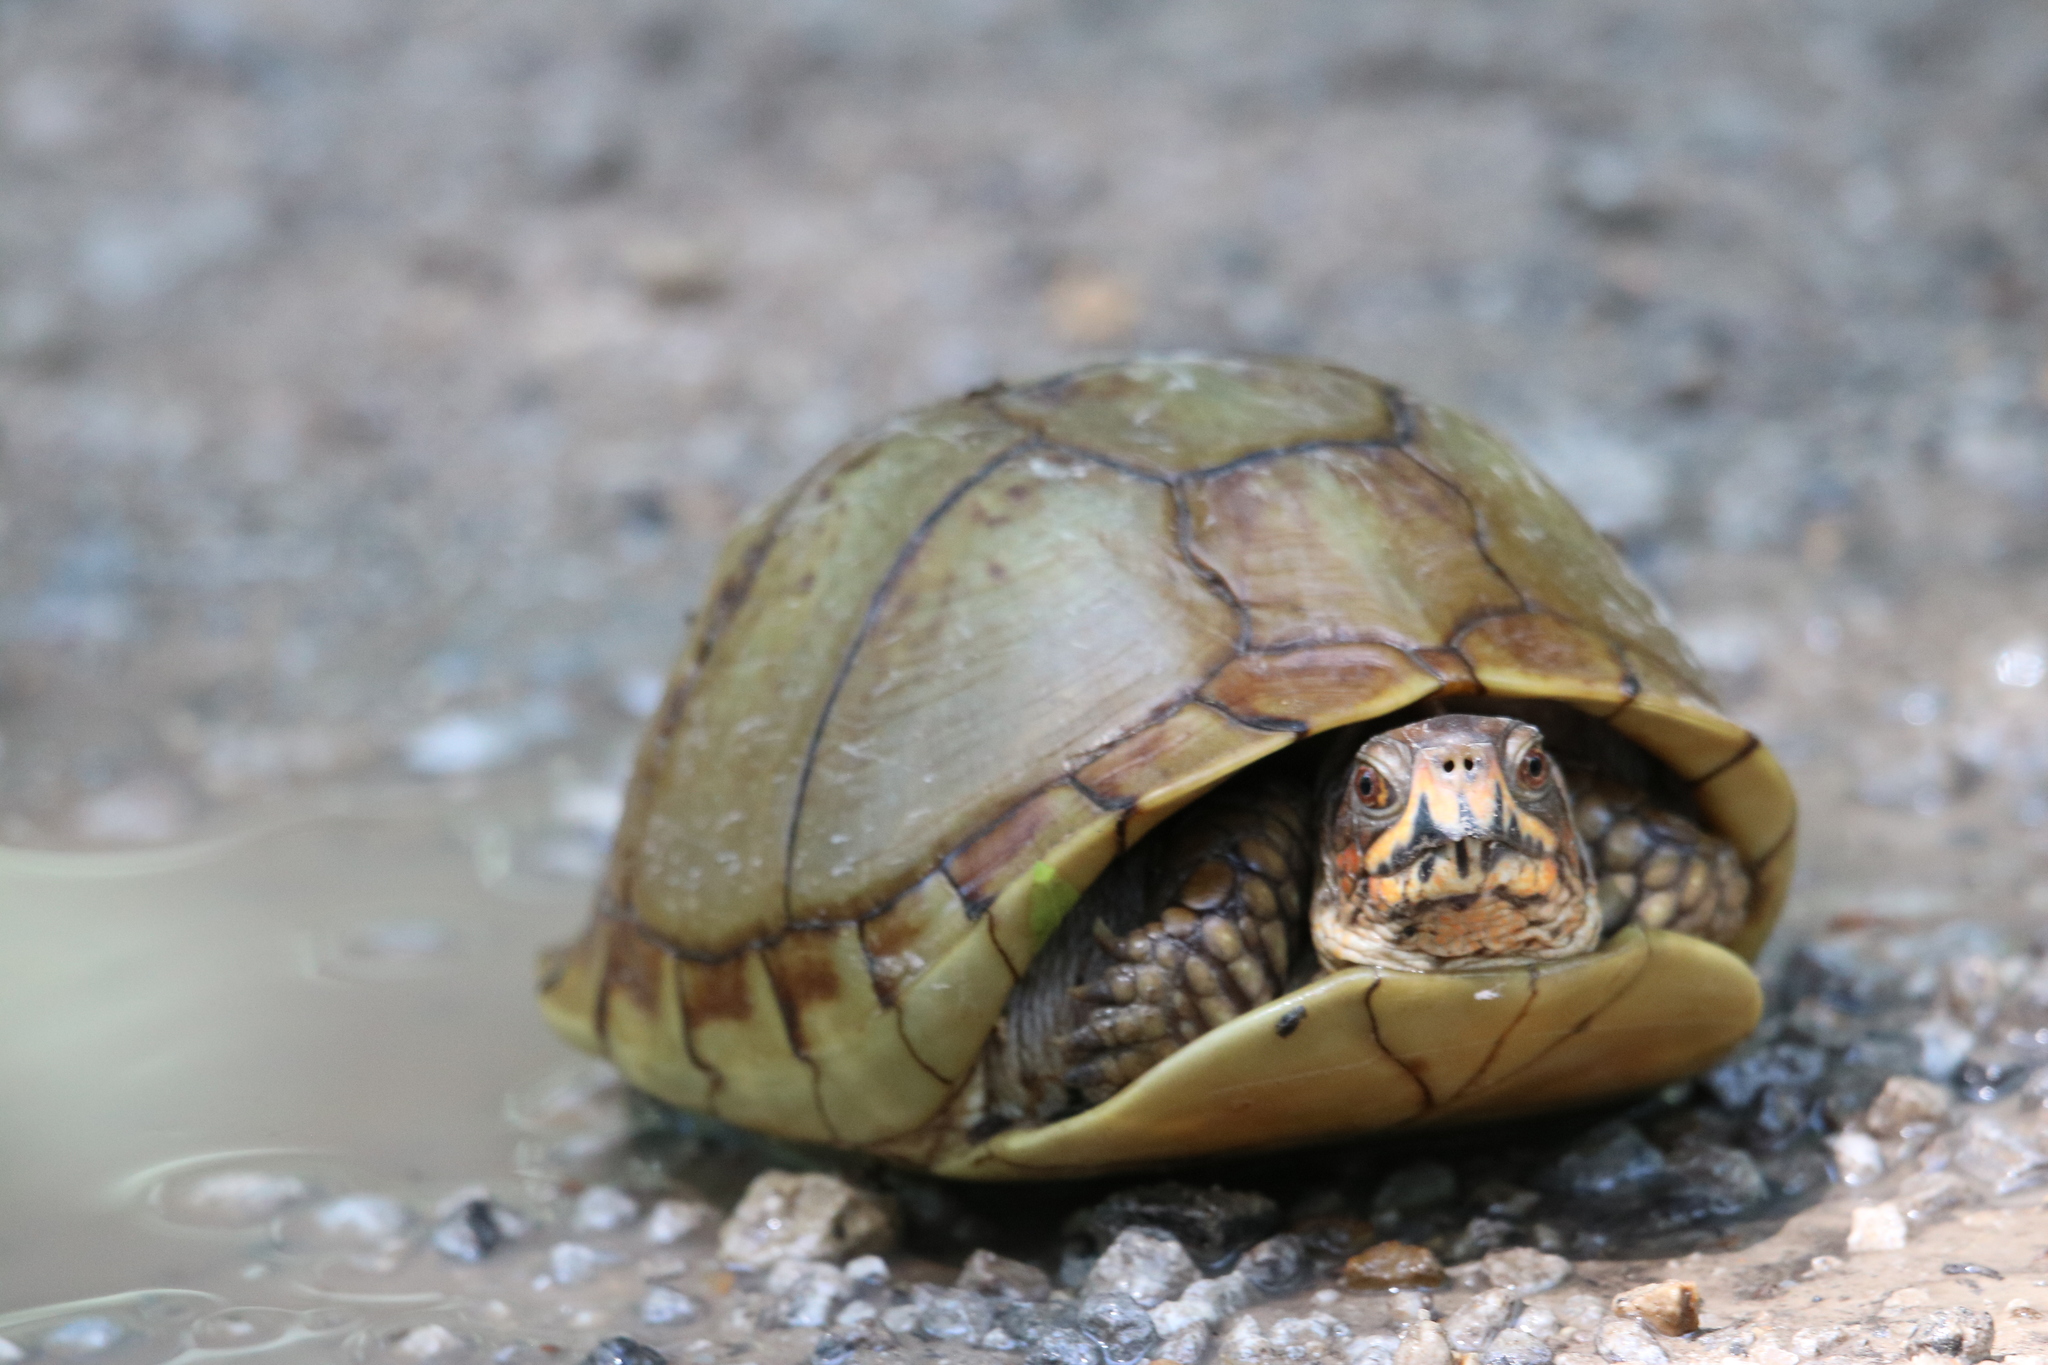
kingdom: Animalia
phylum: Chordata
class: Testudines
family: Emydidae
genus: Terrapene
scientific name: Terrapene carolina
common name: Common box turtle
